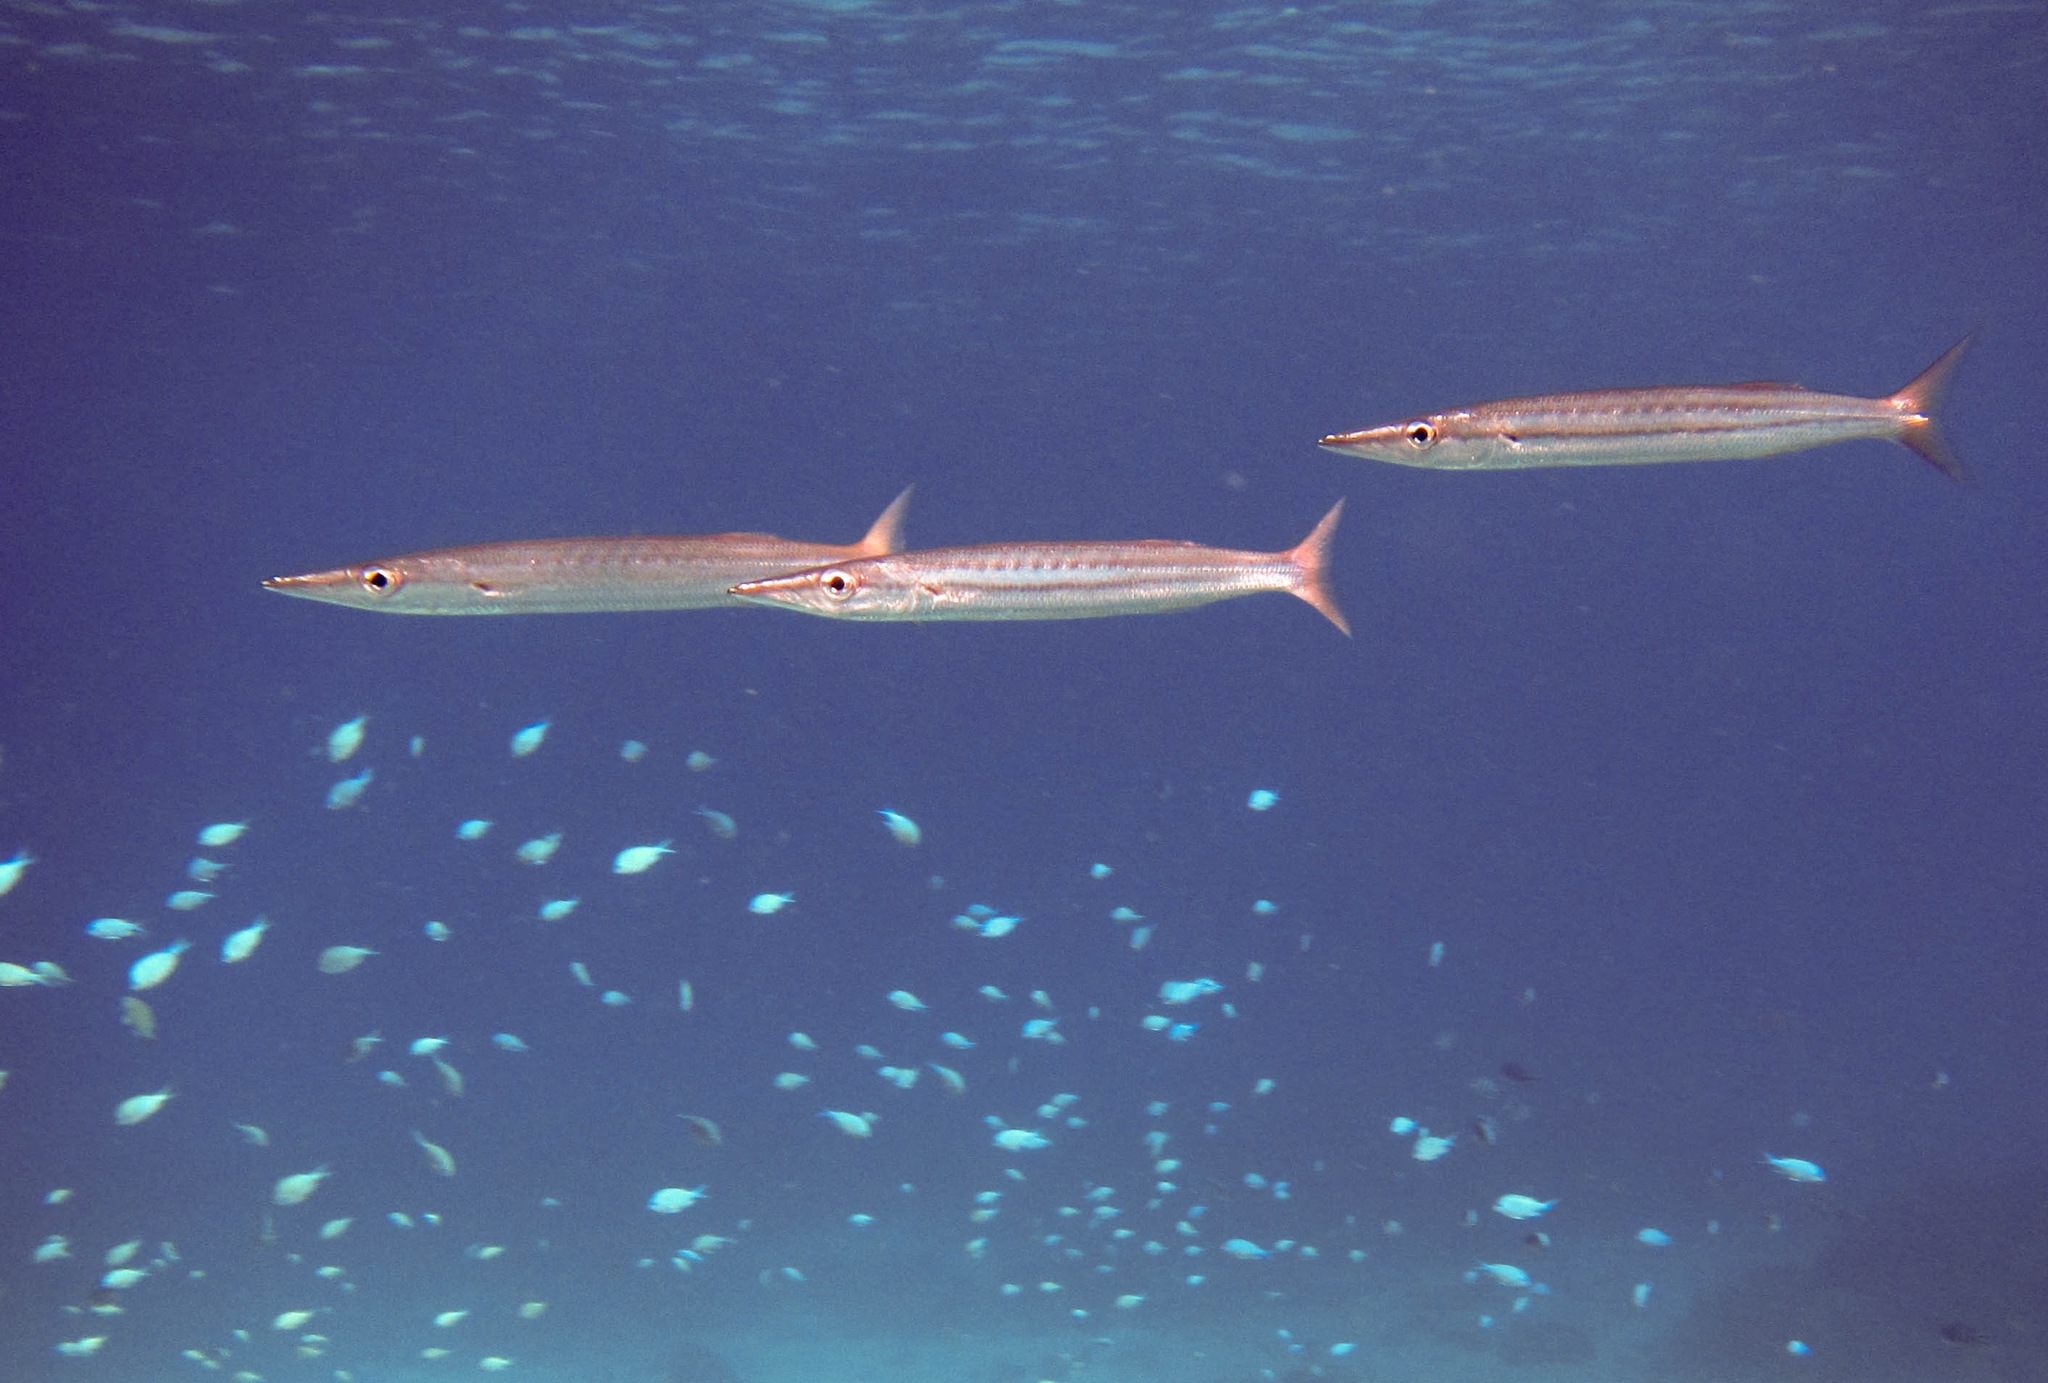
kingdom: Animalia
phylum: Chordata
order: Perciformes
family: Sphyraenidae
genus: Sphyraena
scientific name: Sphyraena helleri
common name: Heller's barracuda
